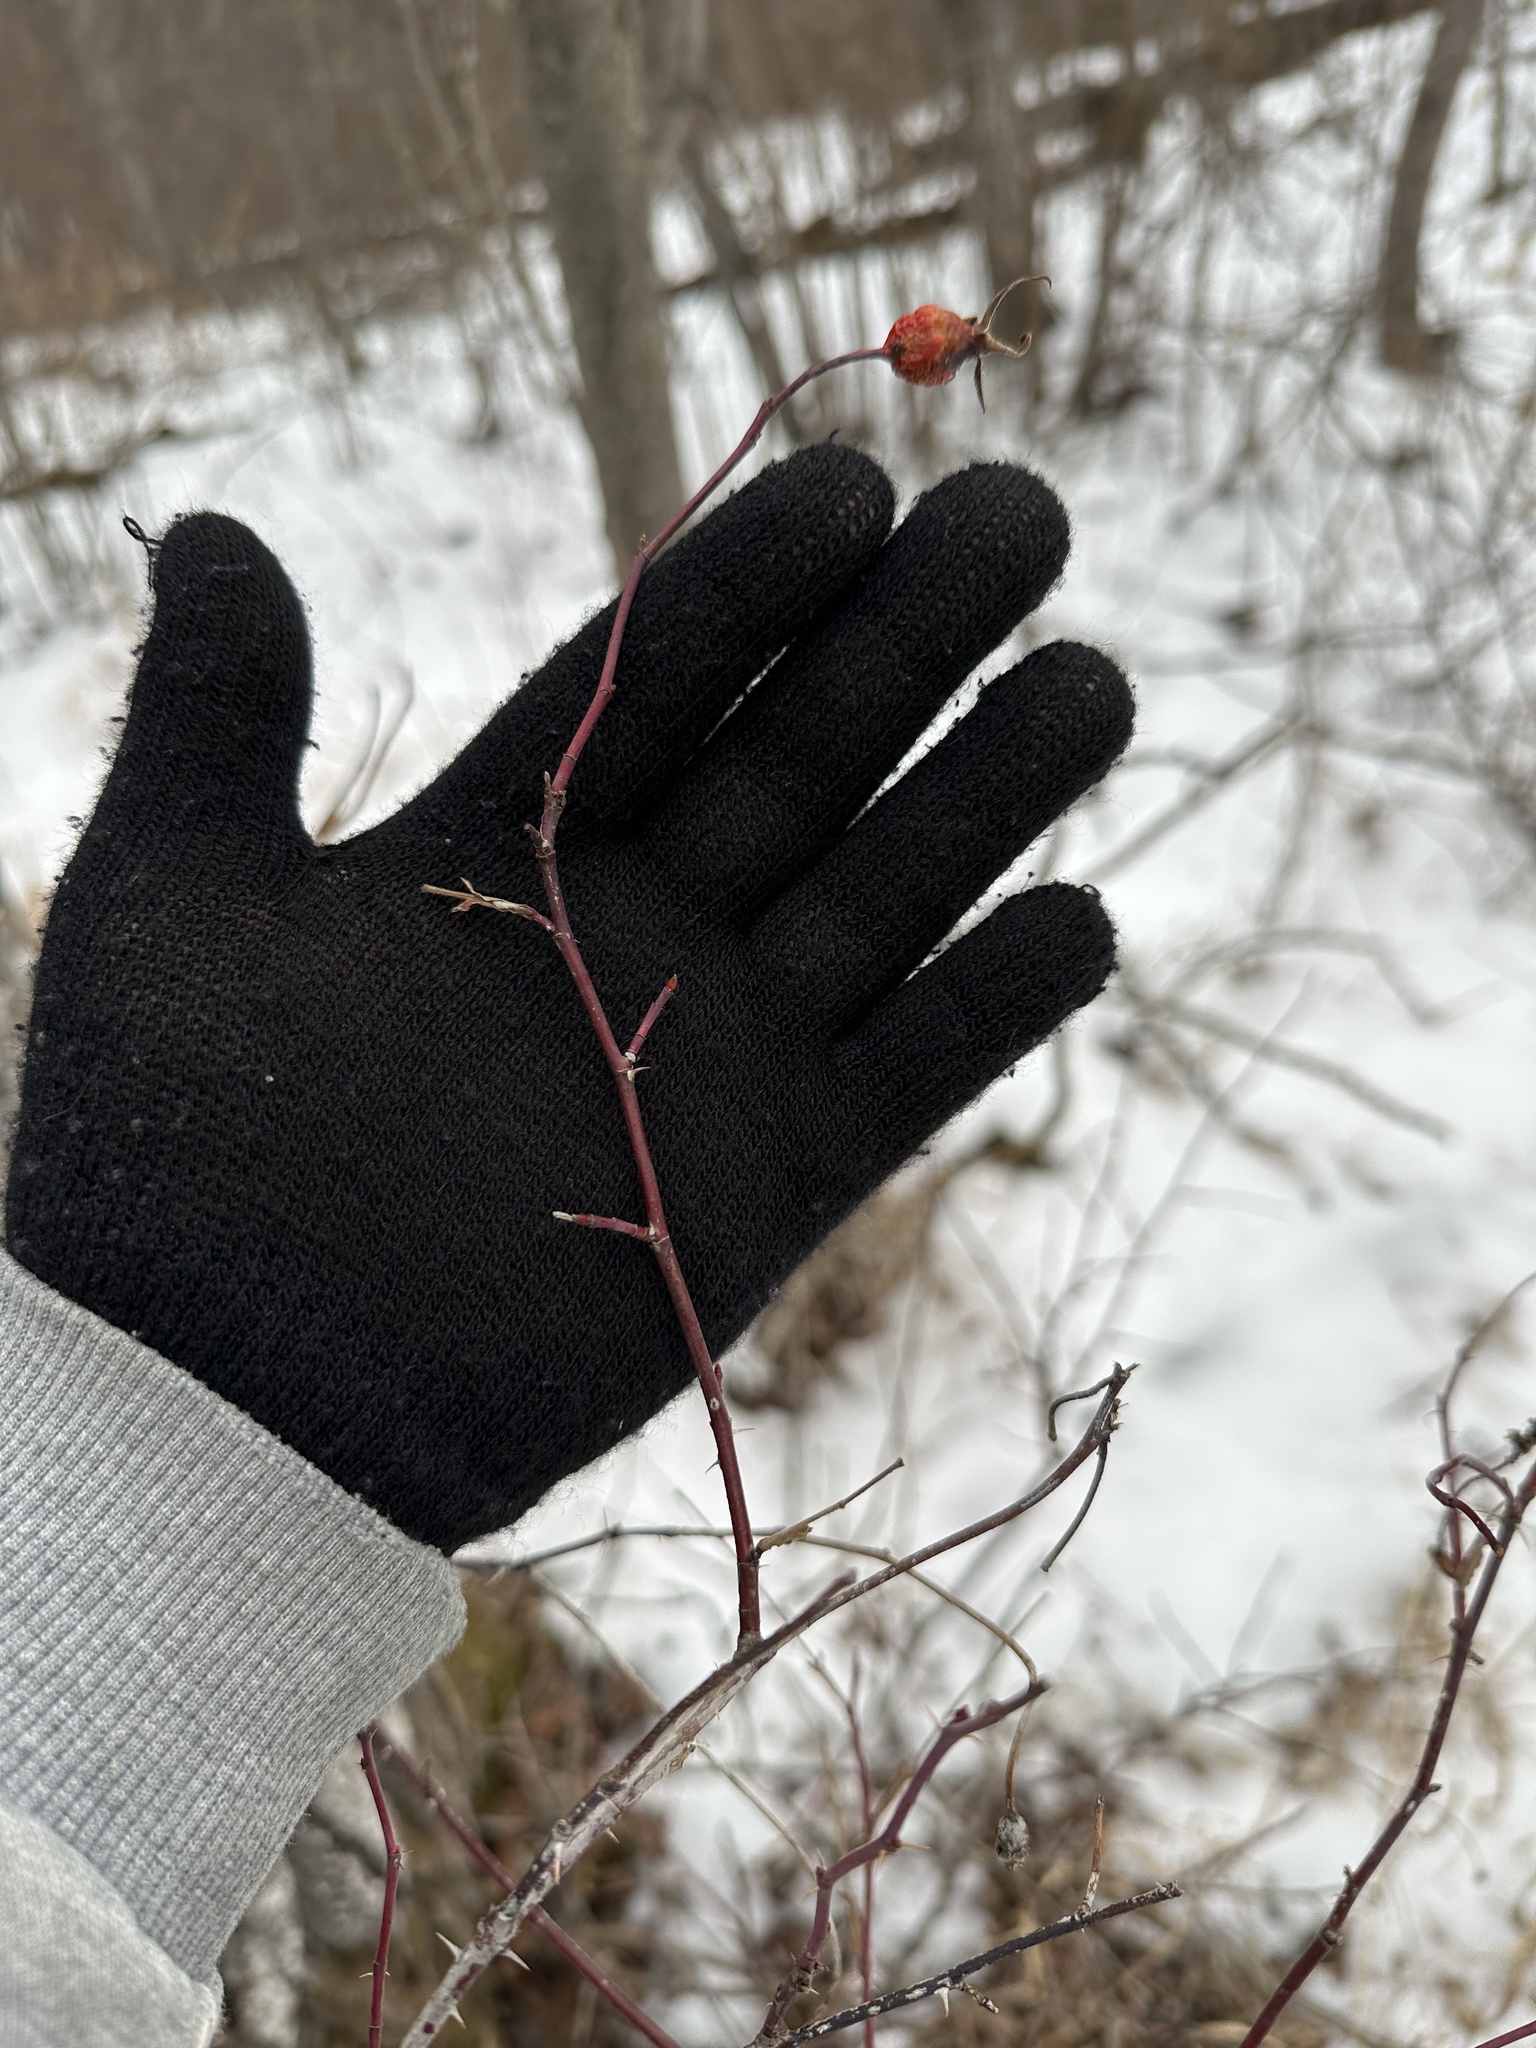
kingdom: Plantae
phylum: Tracheophyta
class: Magnoliopsida
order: Rosales
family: Rosaceae
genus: Rosa
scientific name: Rosa woodsii
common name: Woods's rose
